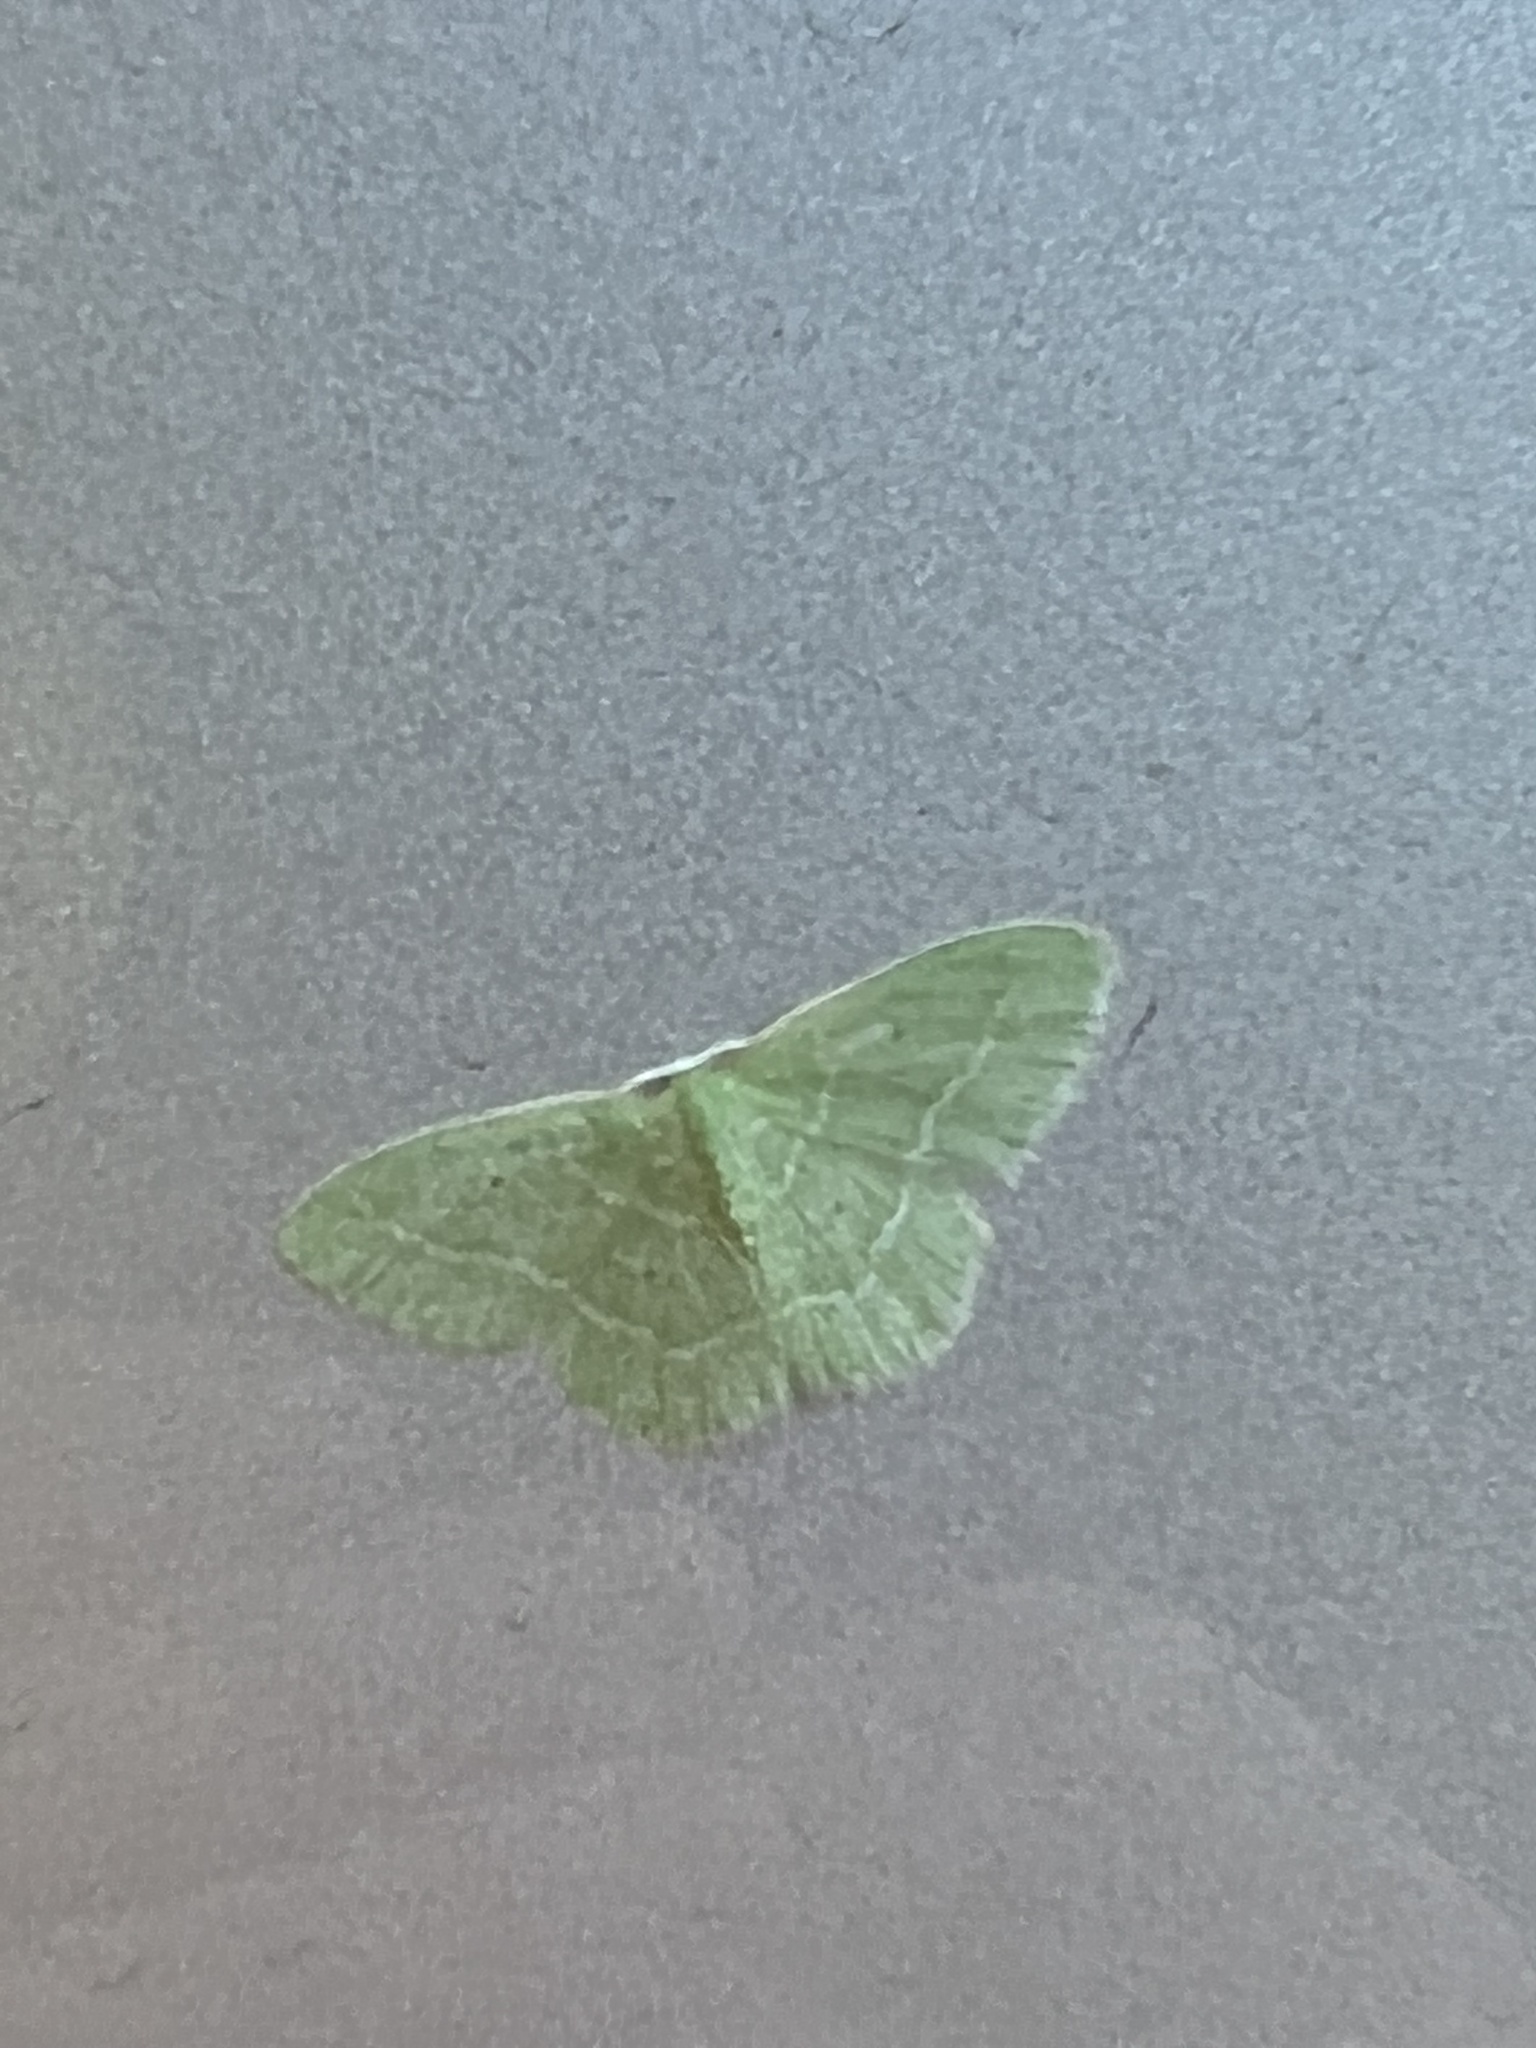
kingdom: Animalia
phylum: Arthropoda
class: Insecta
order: Lepidoptera
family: Geometridae
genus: Nemoria
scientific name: Nemoria elfa
